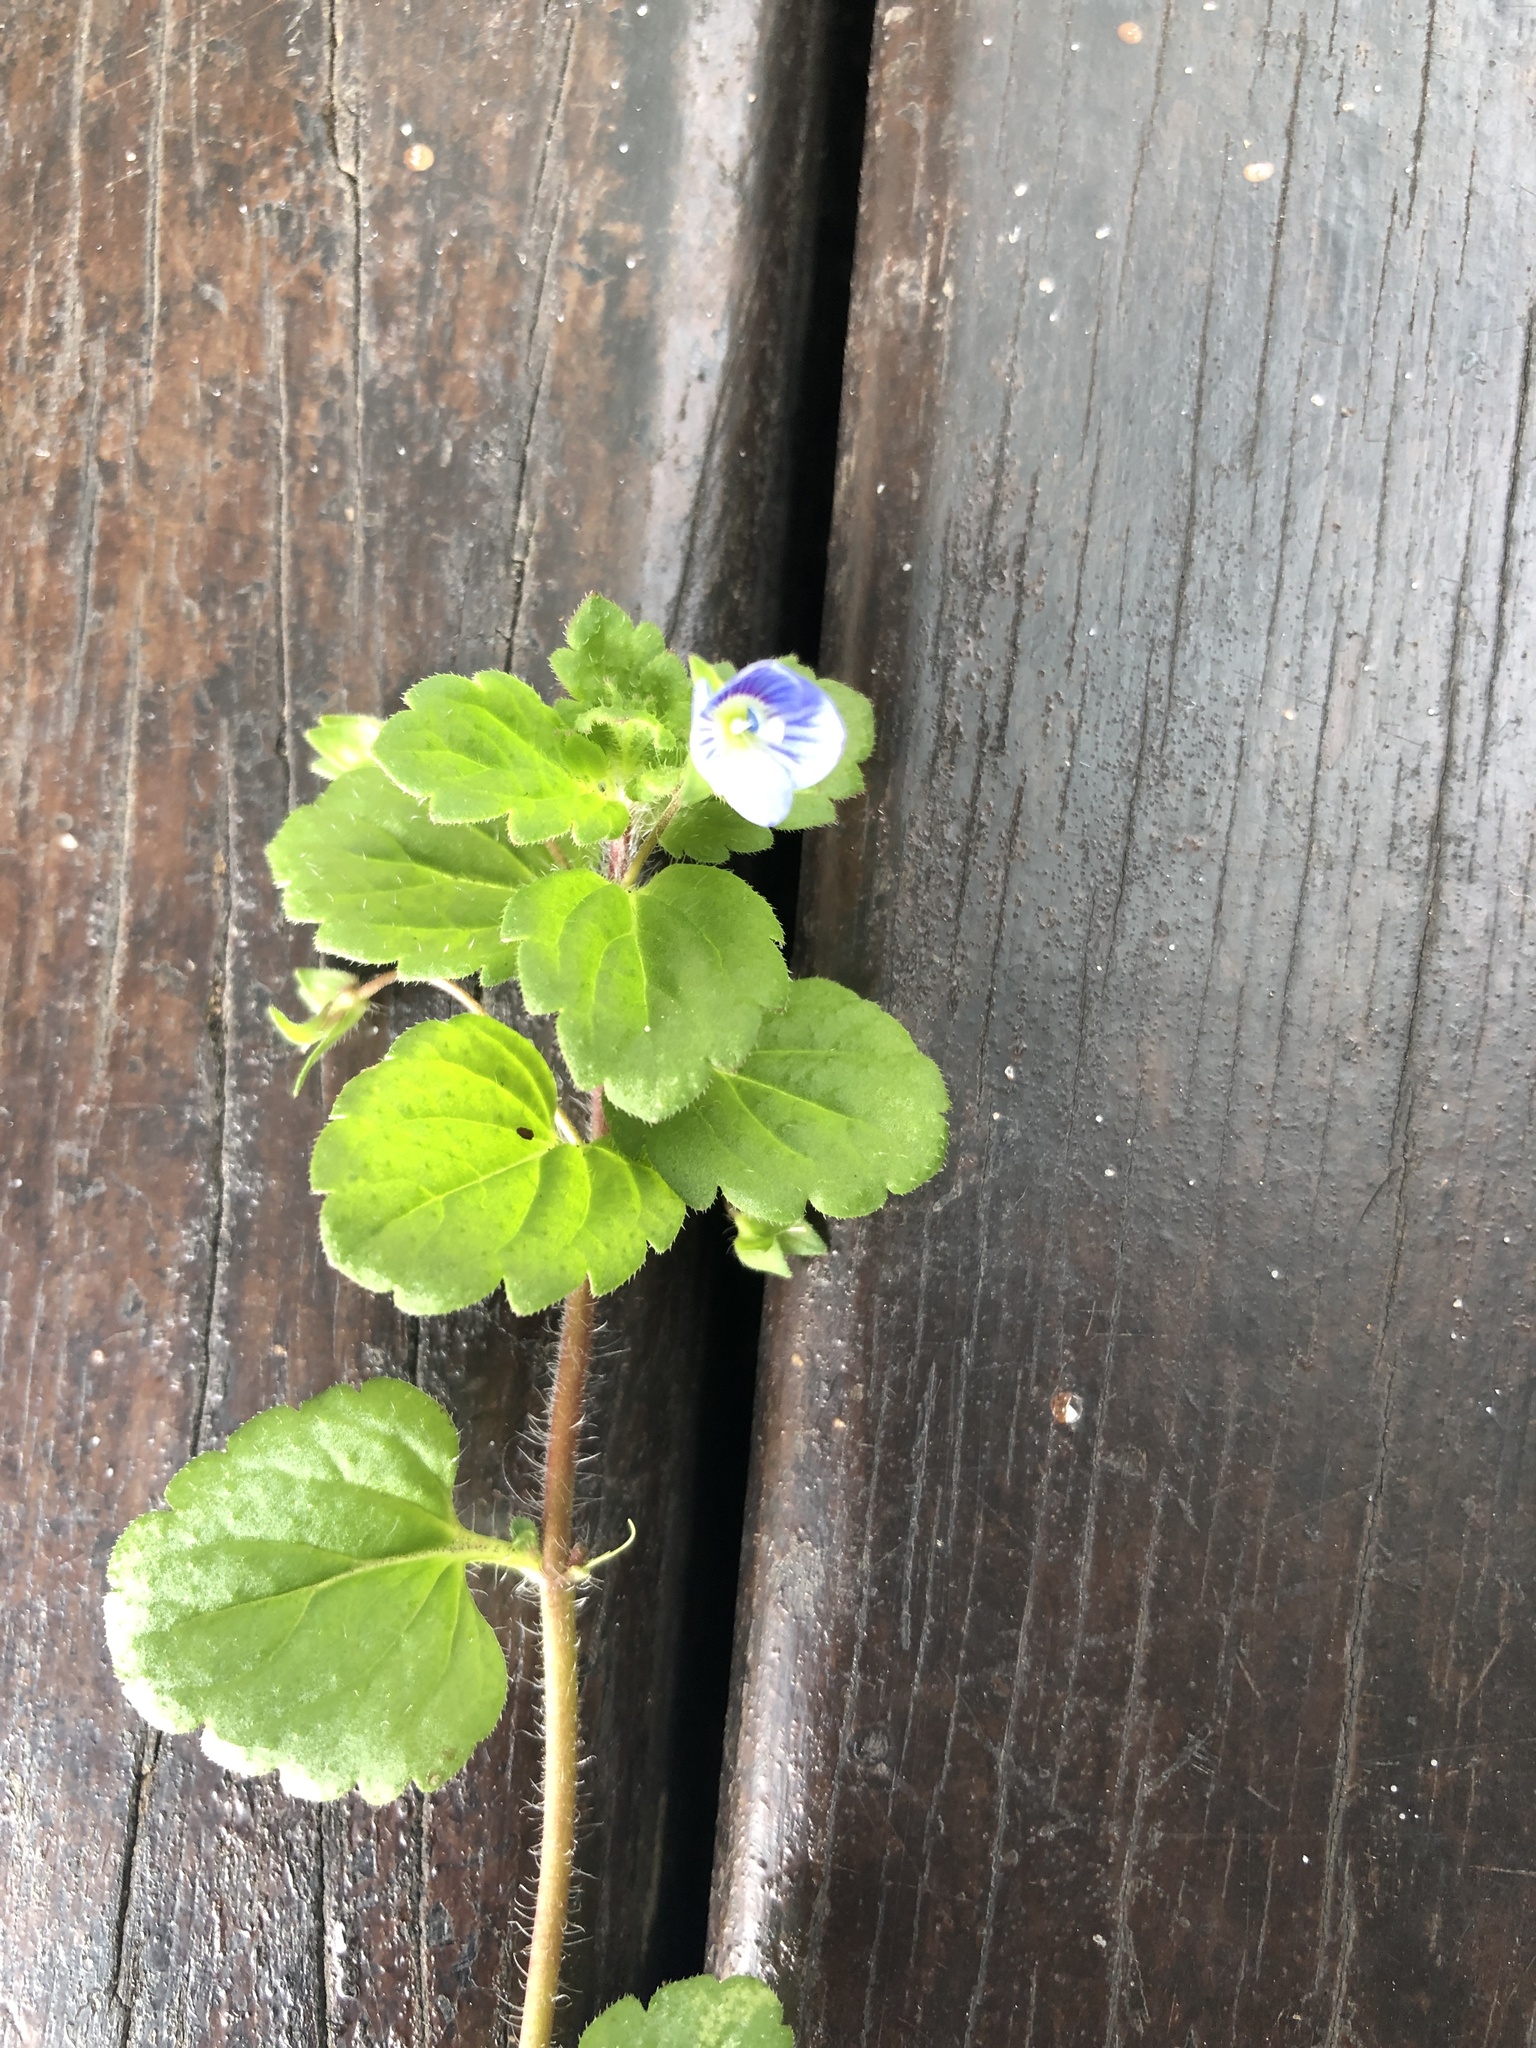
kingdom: Plantae
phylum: Tracheophyta
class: Magnoliopsida
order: Lamiales
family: Plantaginaceae
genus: Veronica
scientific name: Veronica persica
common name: Common field-speedwell
